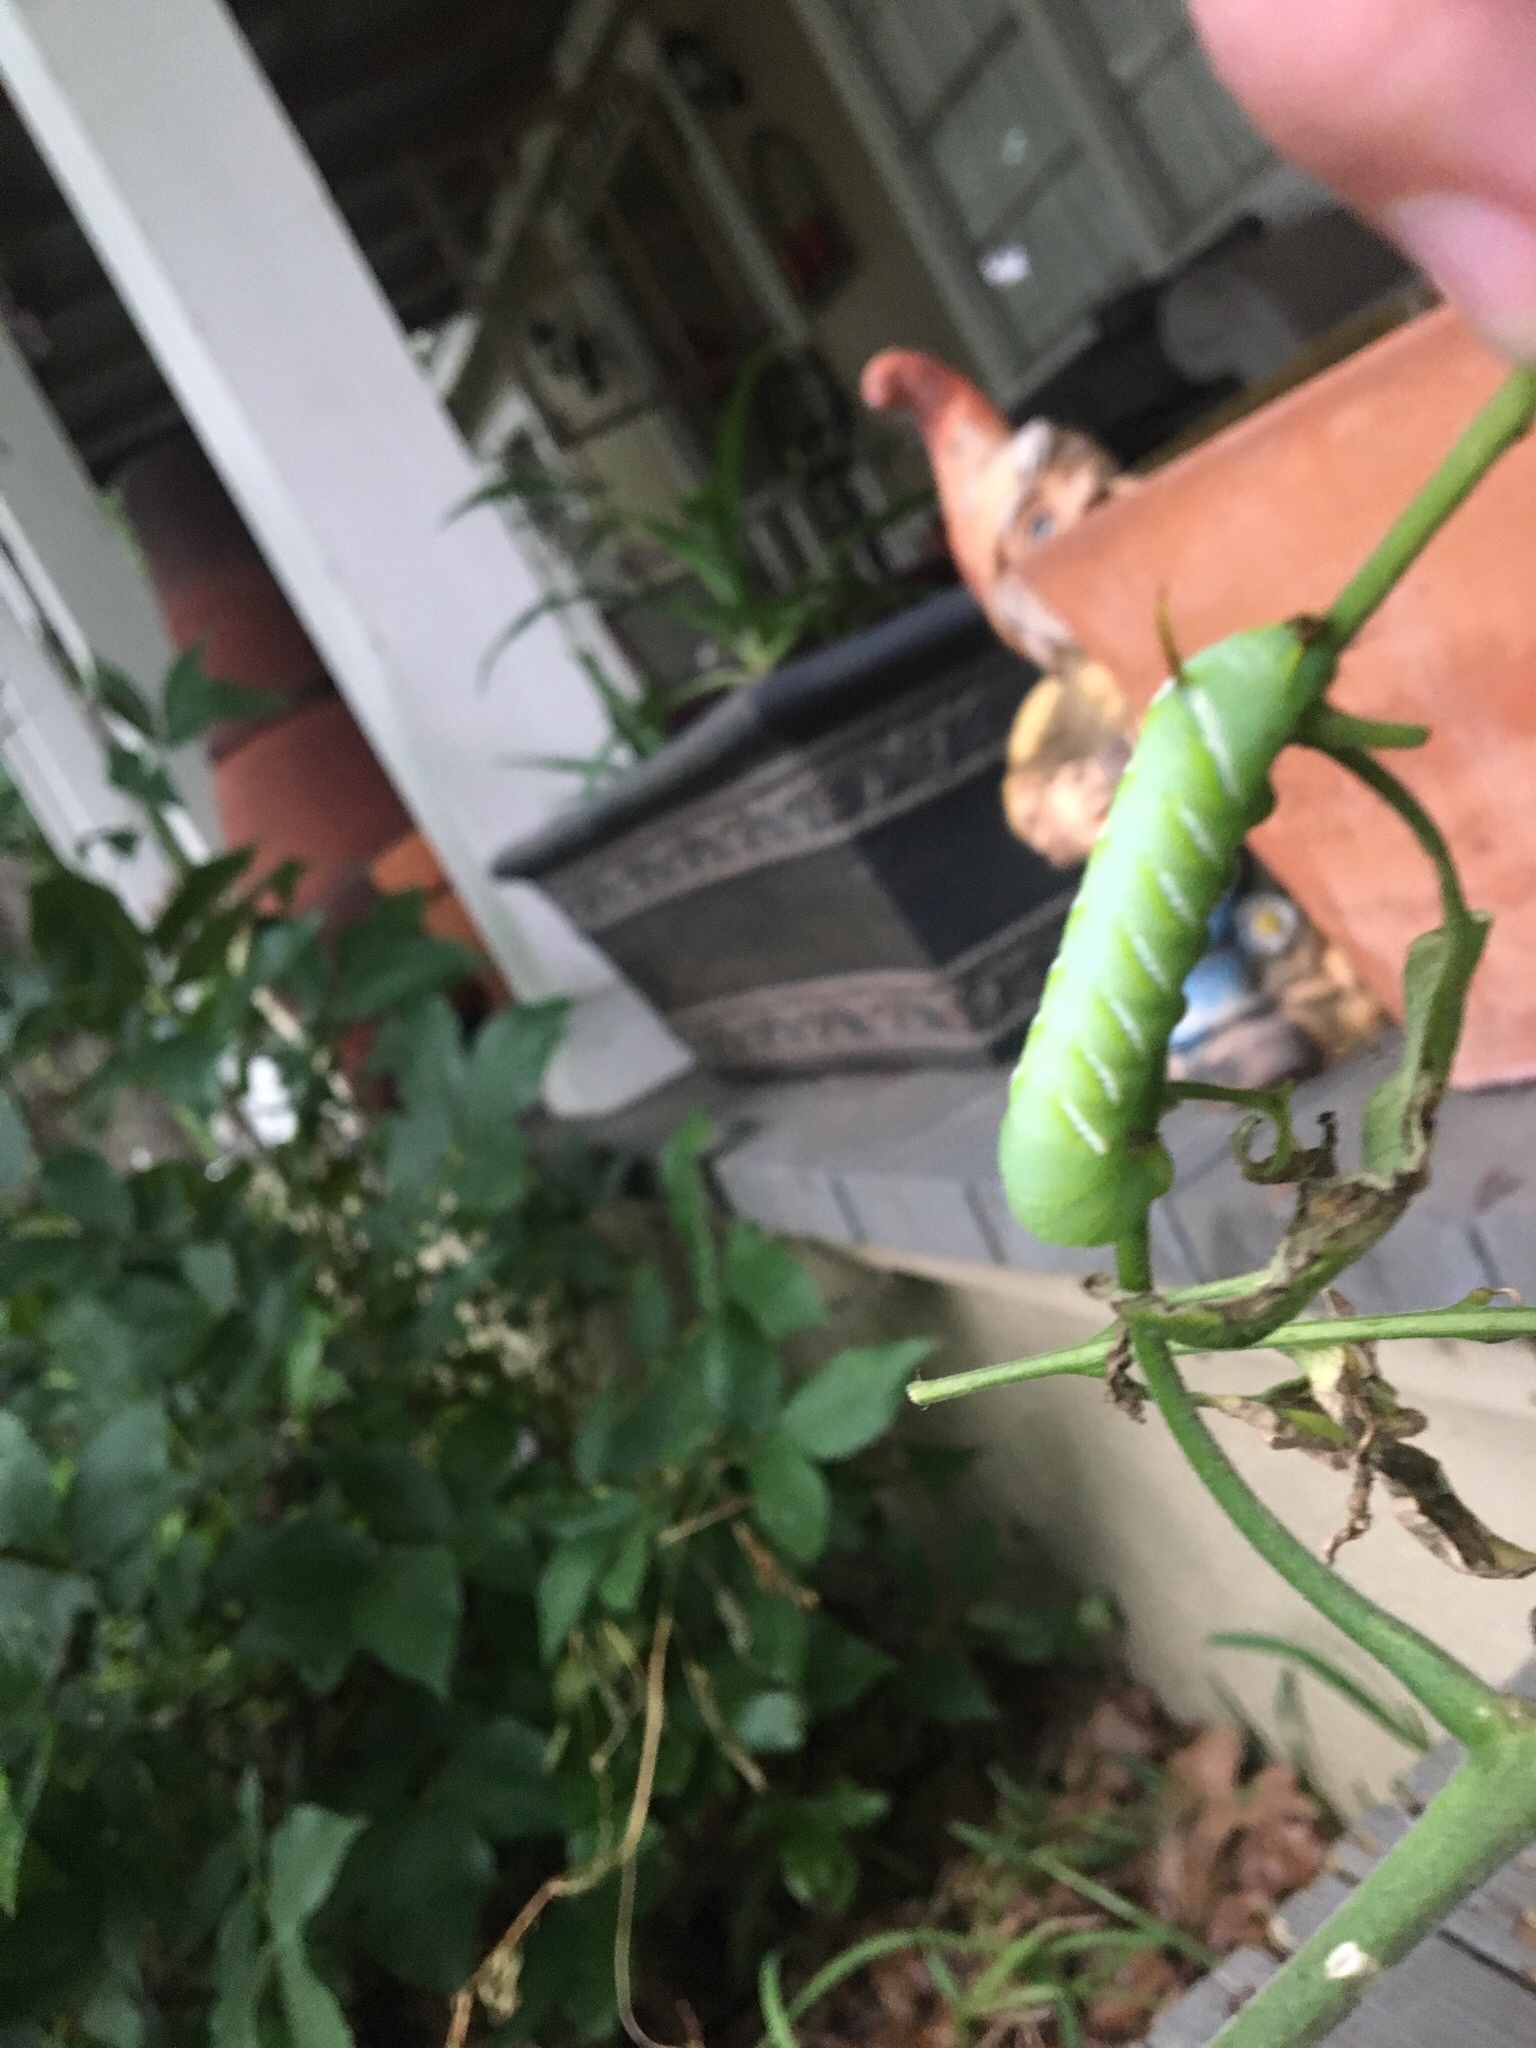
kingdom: Animalia
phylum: Arthropoda
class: Insecta
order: Lepidoptera
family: Sphingidae
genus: Manduca
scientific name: Manduca sexta
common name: Carolina sphinx
